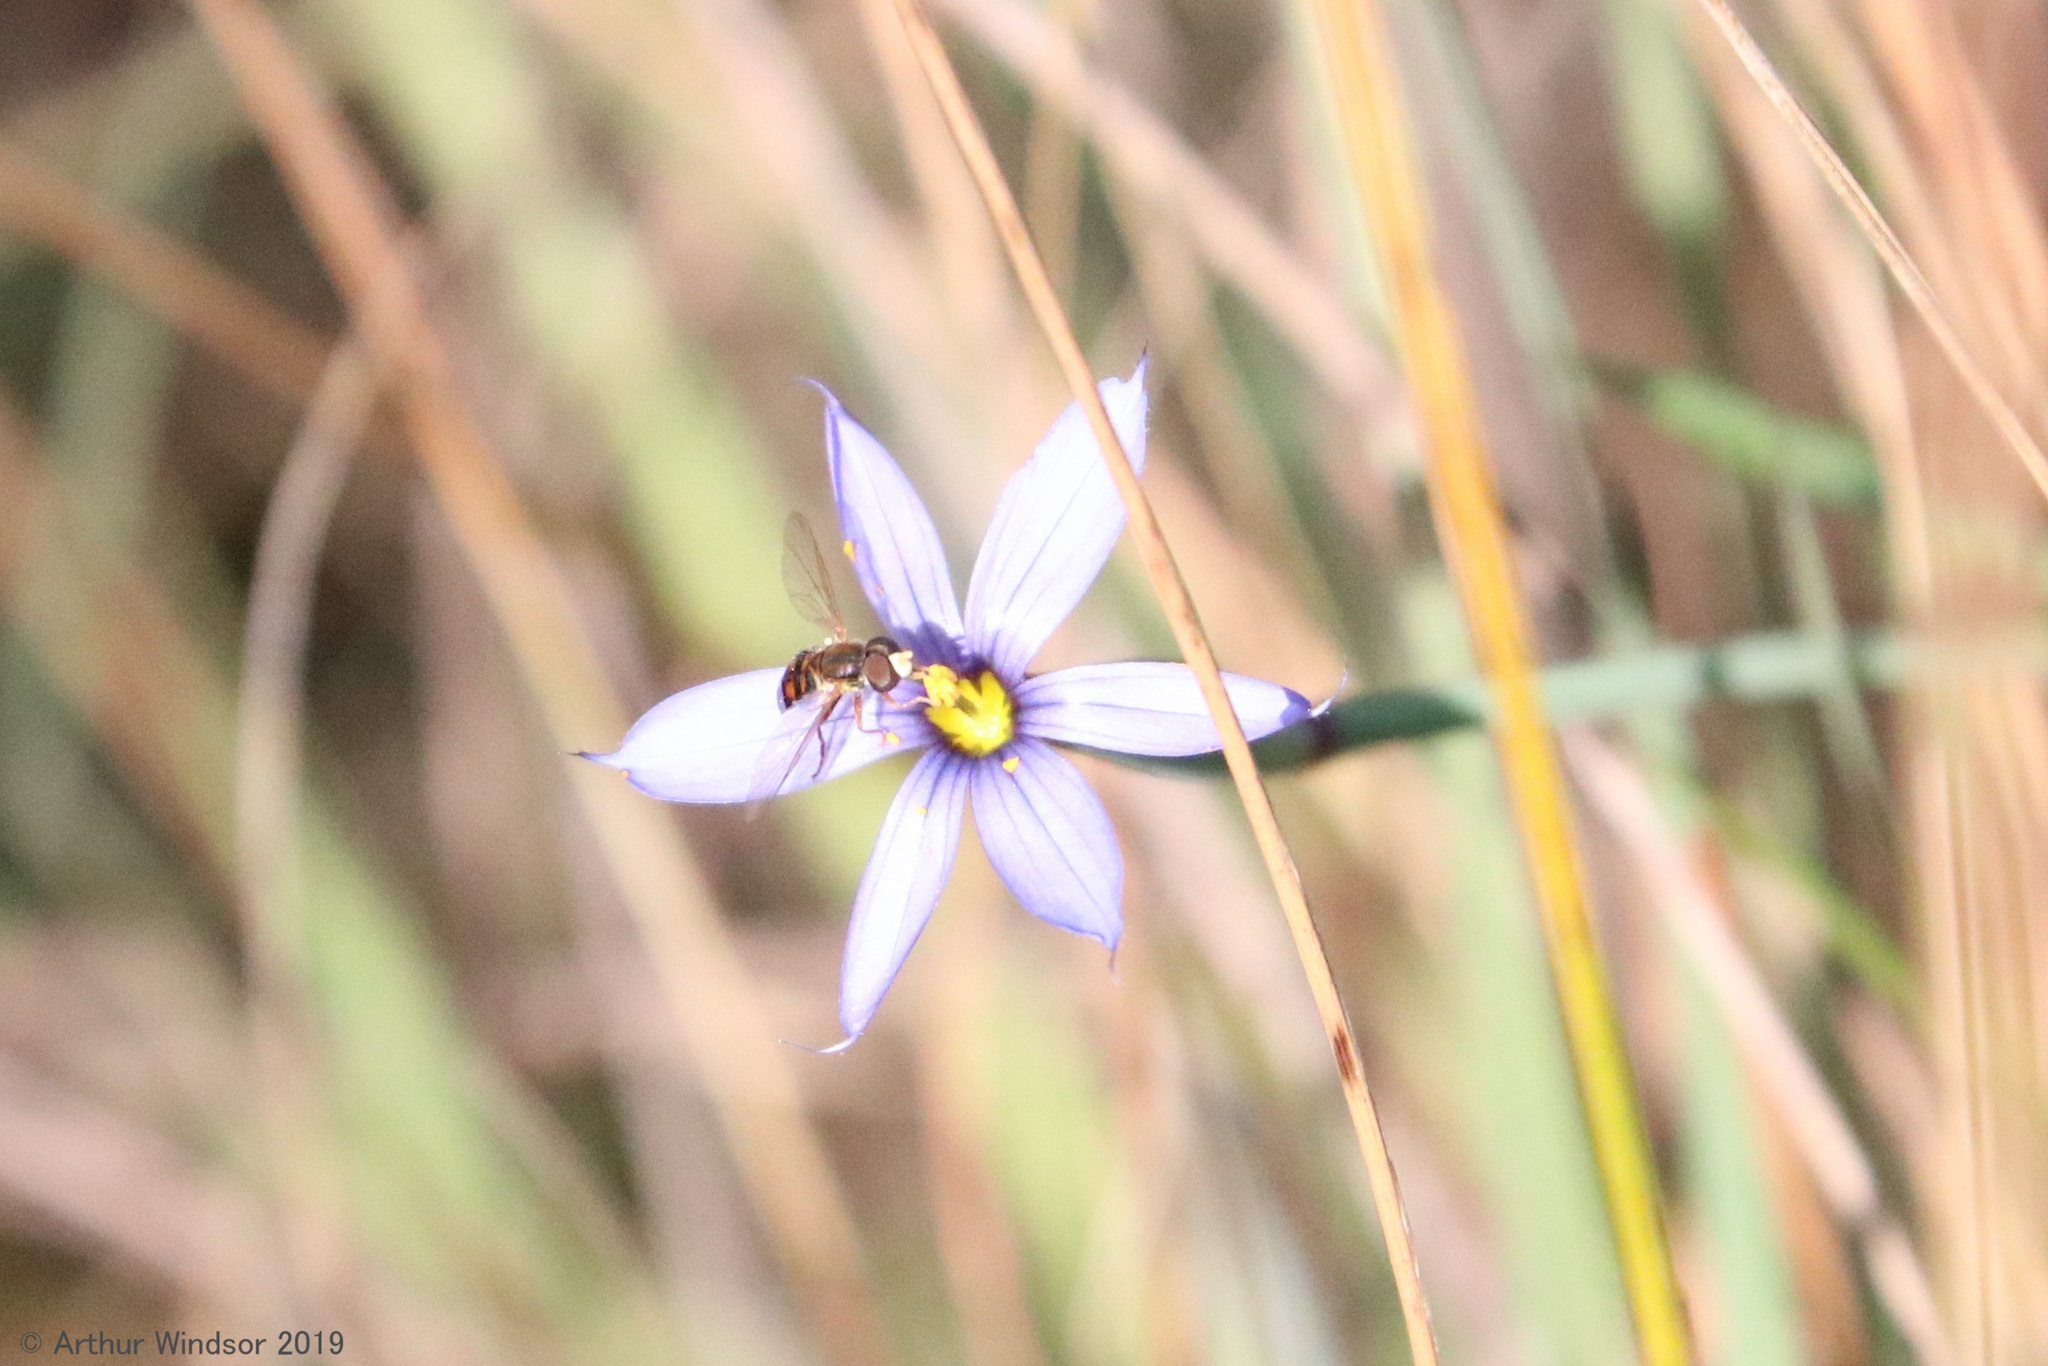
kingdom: Animalia
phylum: Arthropoda
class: Insecta
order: Diptera
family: Syrphidae
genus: Toxomerus
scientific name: Toxomerus
